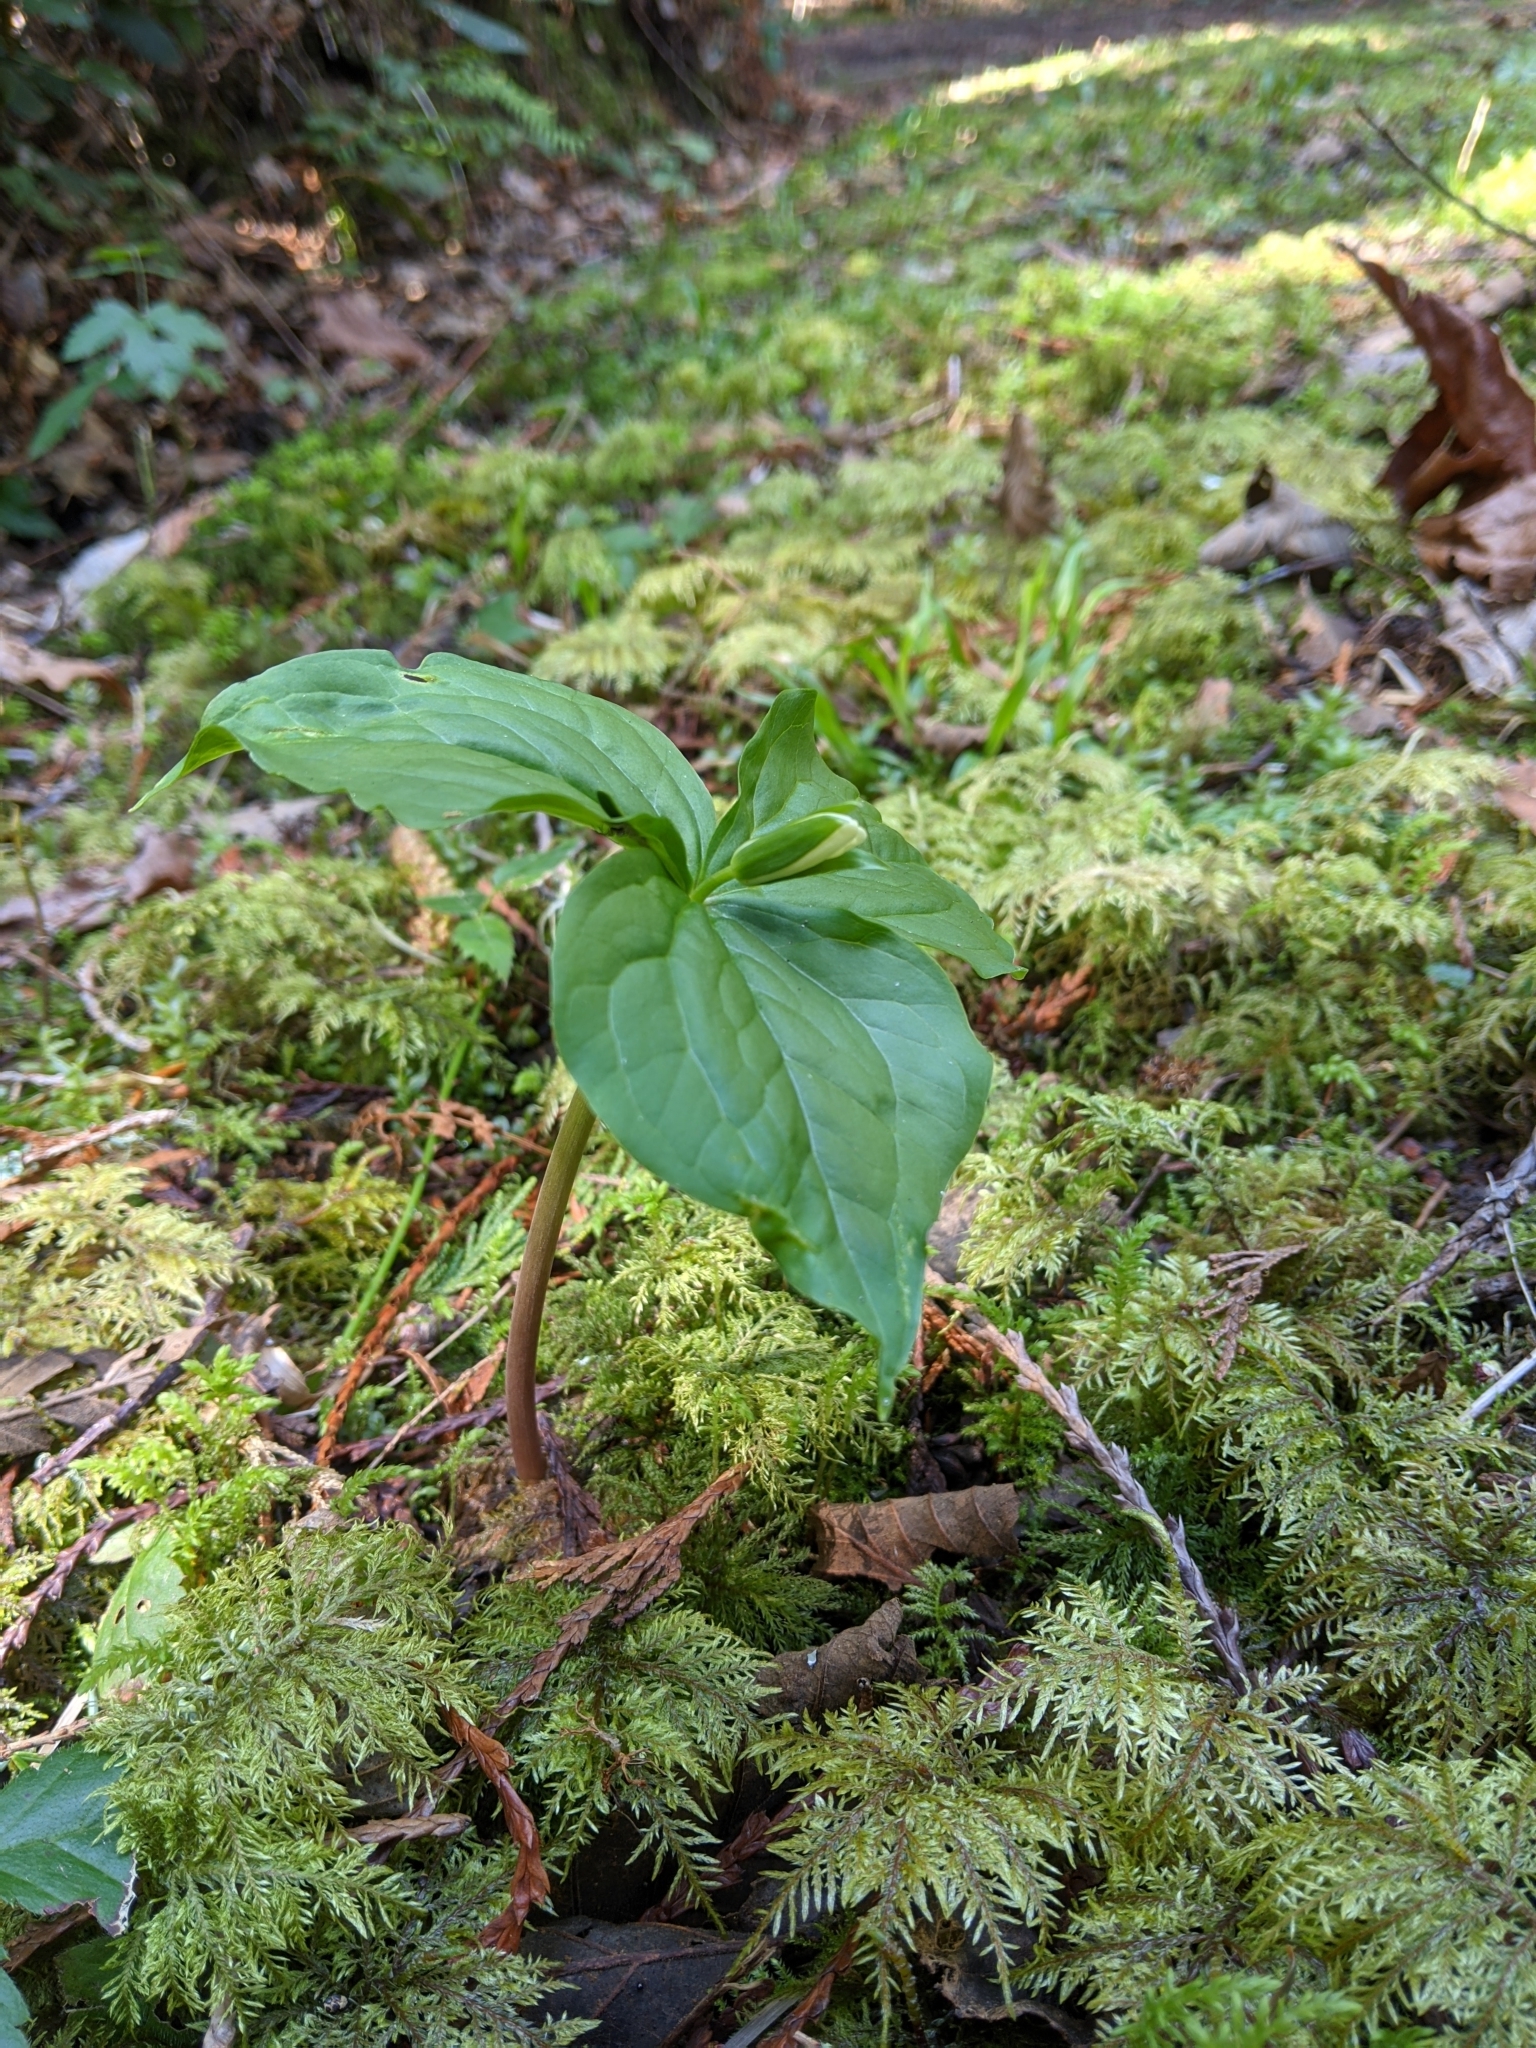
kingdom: Plantae
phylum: Tracheophyta
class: Liliopsida
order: Liliales
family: Melanthiaceae
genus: Trillium
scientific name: Trillium ovatum
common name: Pacific trillium
